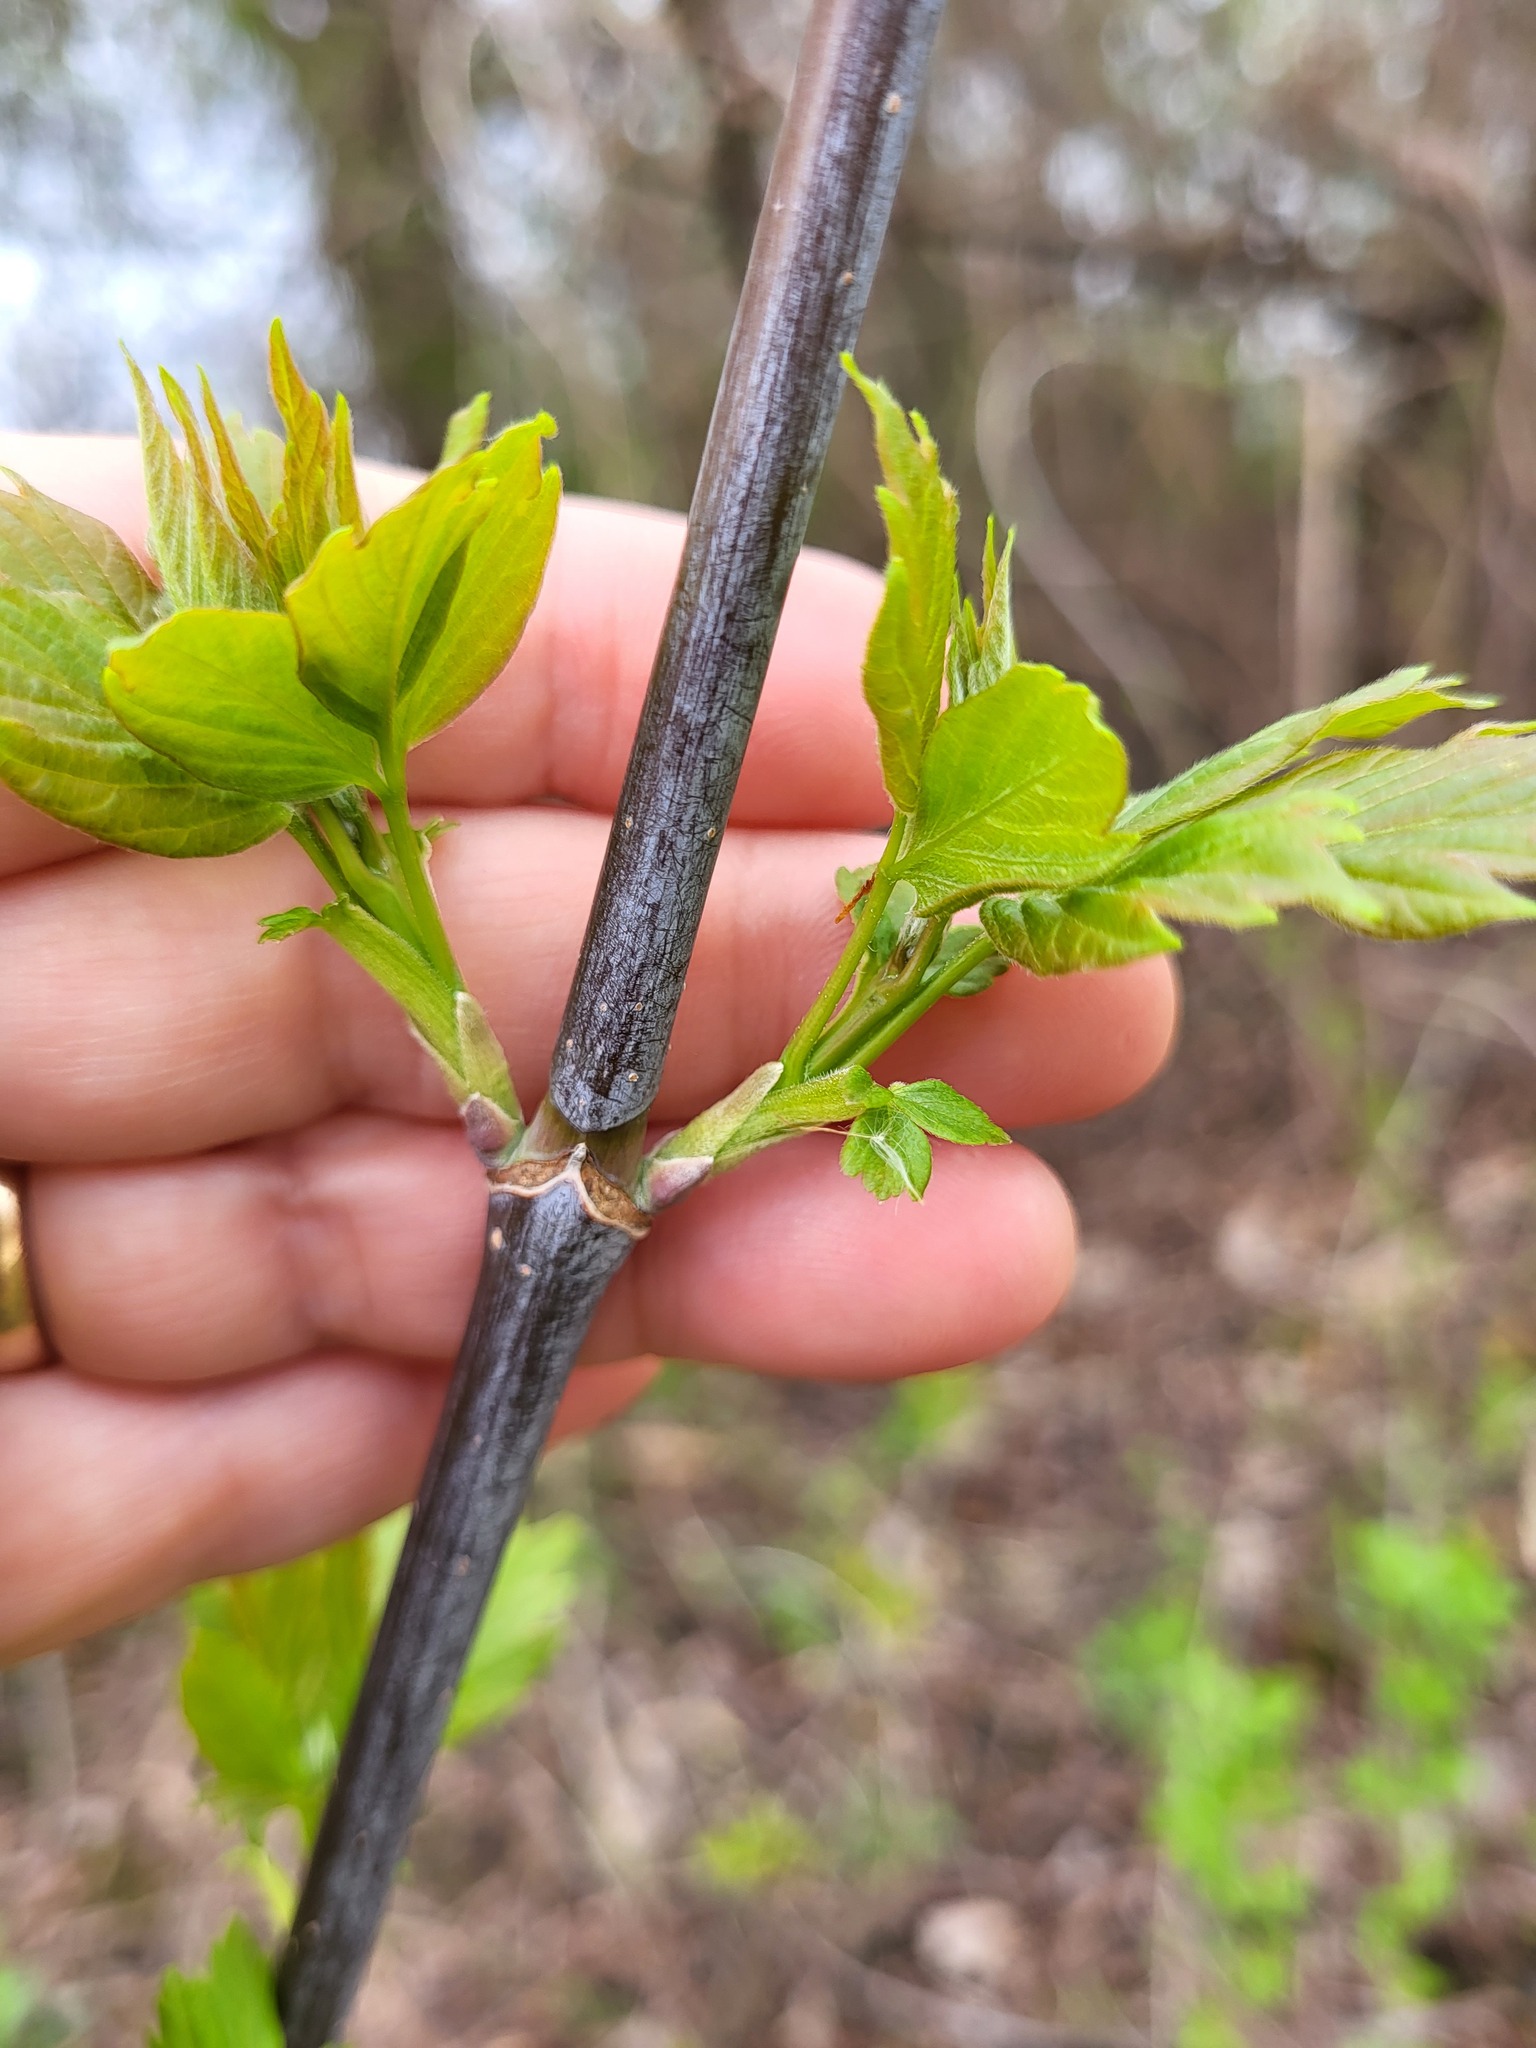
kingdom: Plantae
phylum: Tracheophyta
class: Magnoliopsida
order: Sapindales
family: Sapindaceae
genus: Acer
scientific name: Acer negundo
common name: Ashleaf maple
